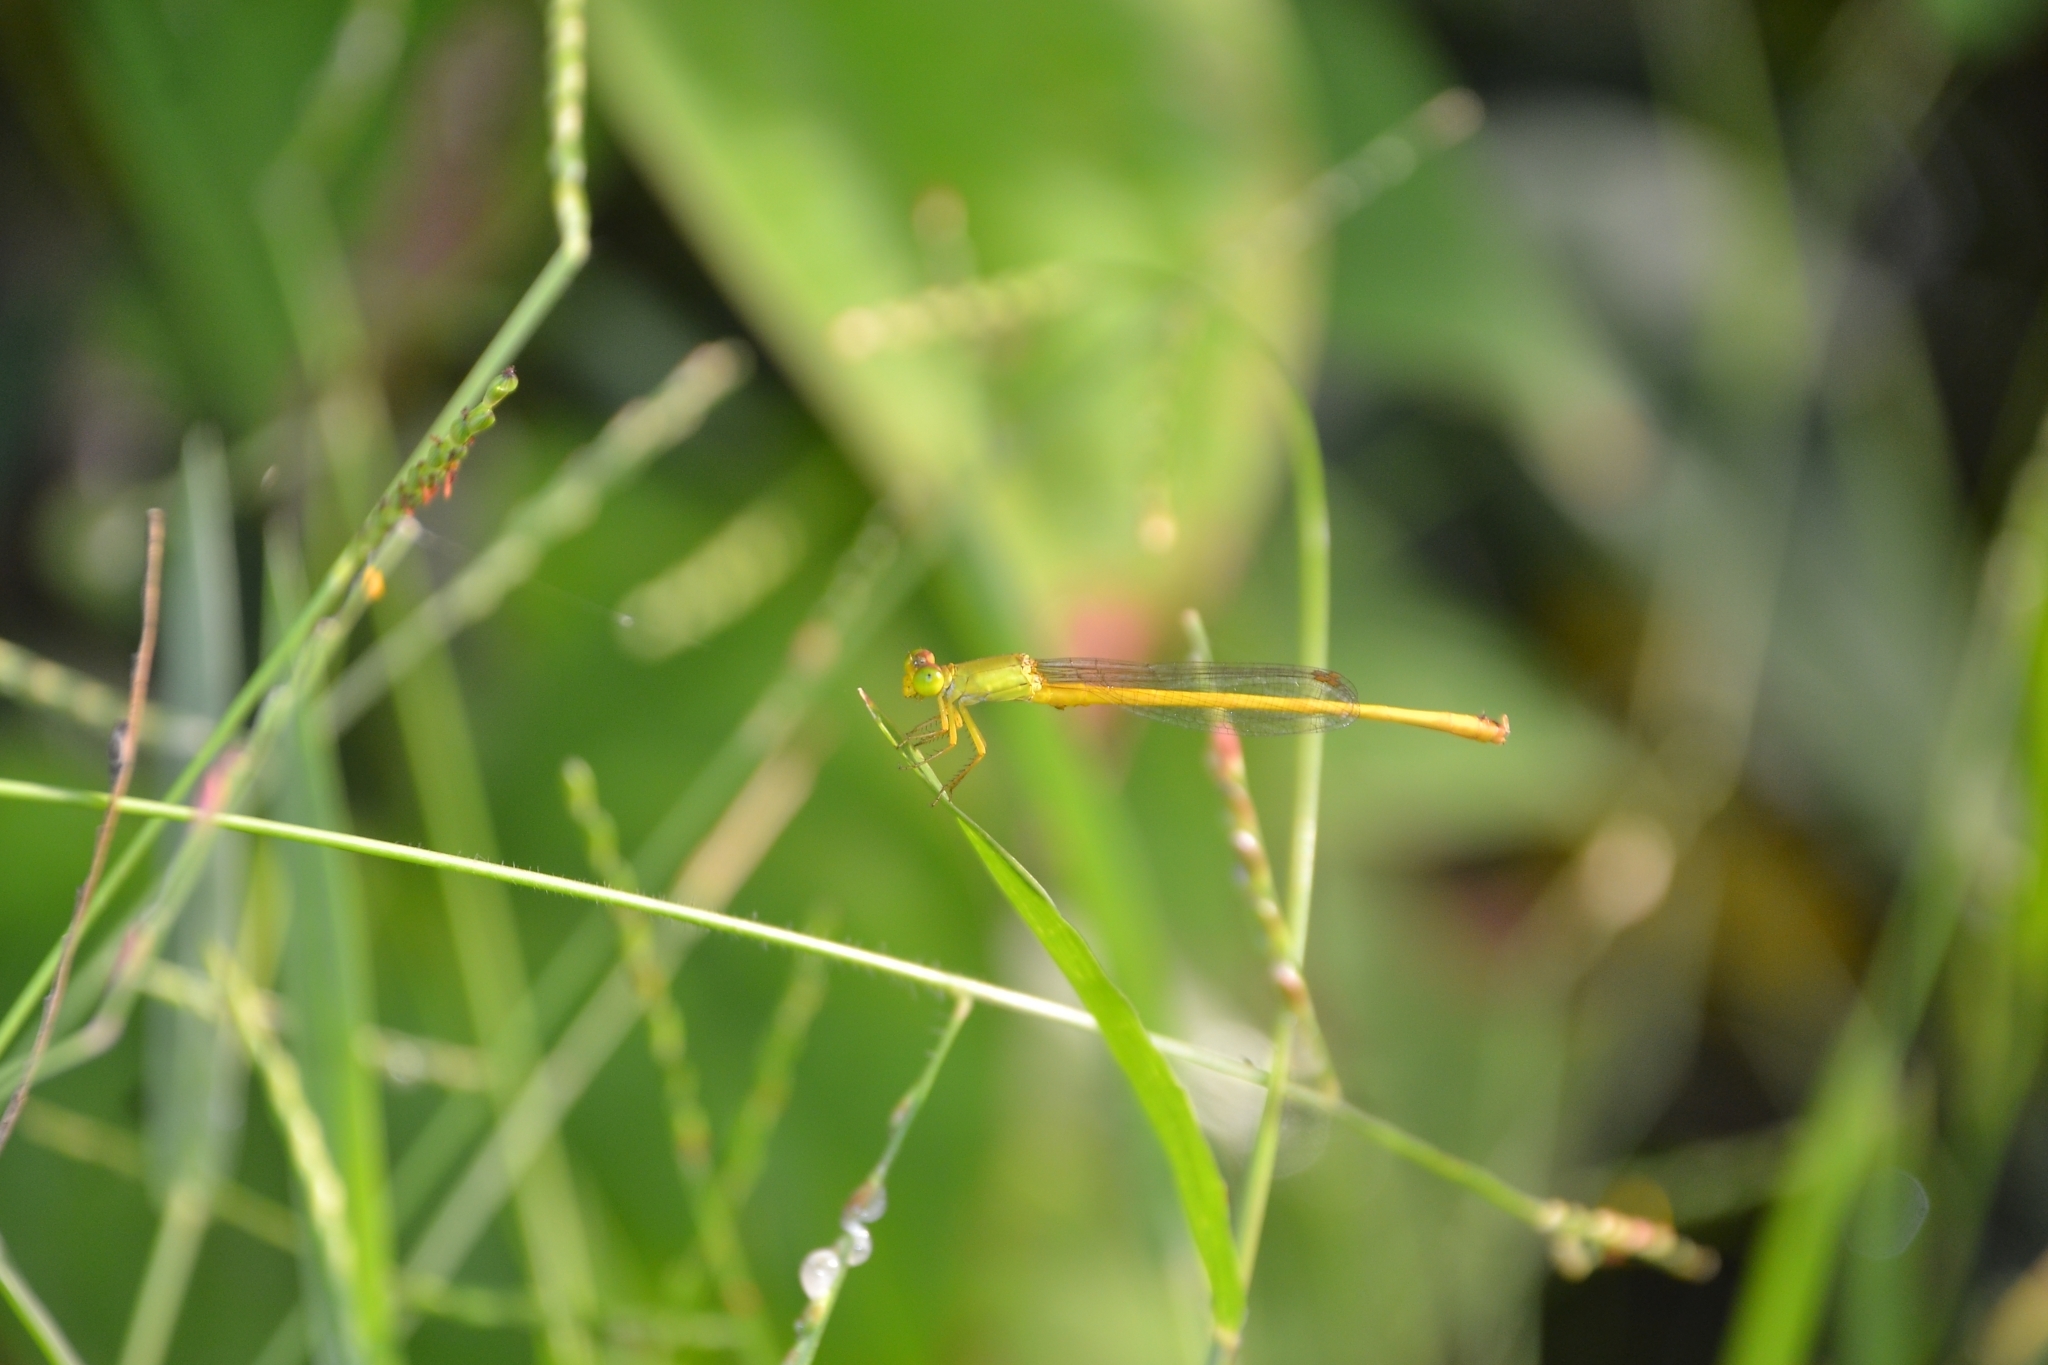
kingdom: Animalia
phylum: Arthropoda
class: Insecta
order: Odonata
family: Coenagrionidae
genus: Ceriagrion
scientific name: Ceriagrion coromandelianum
